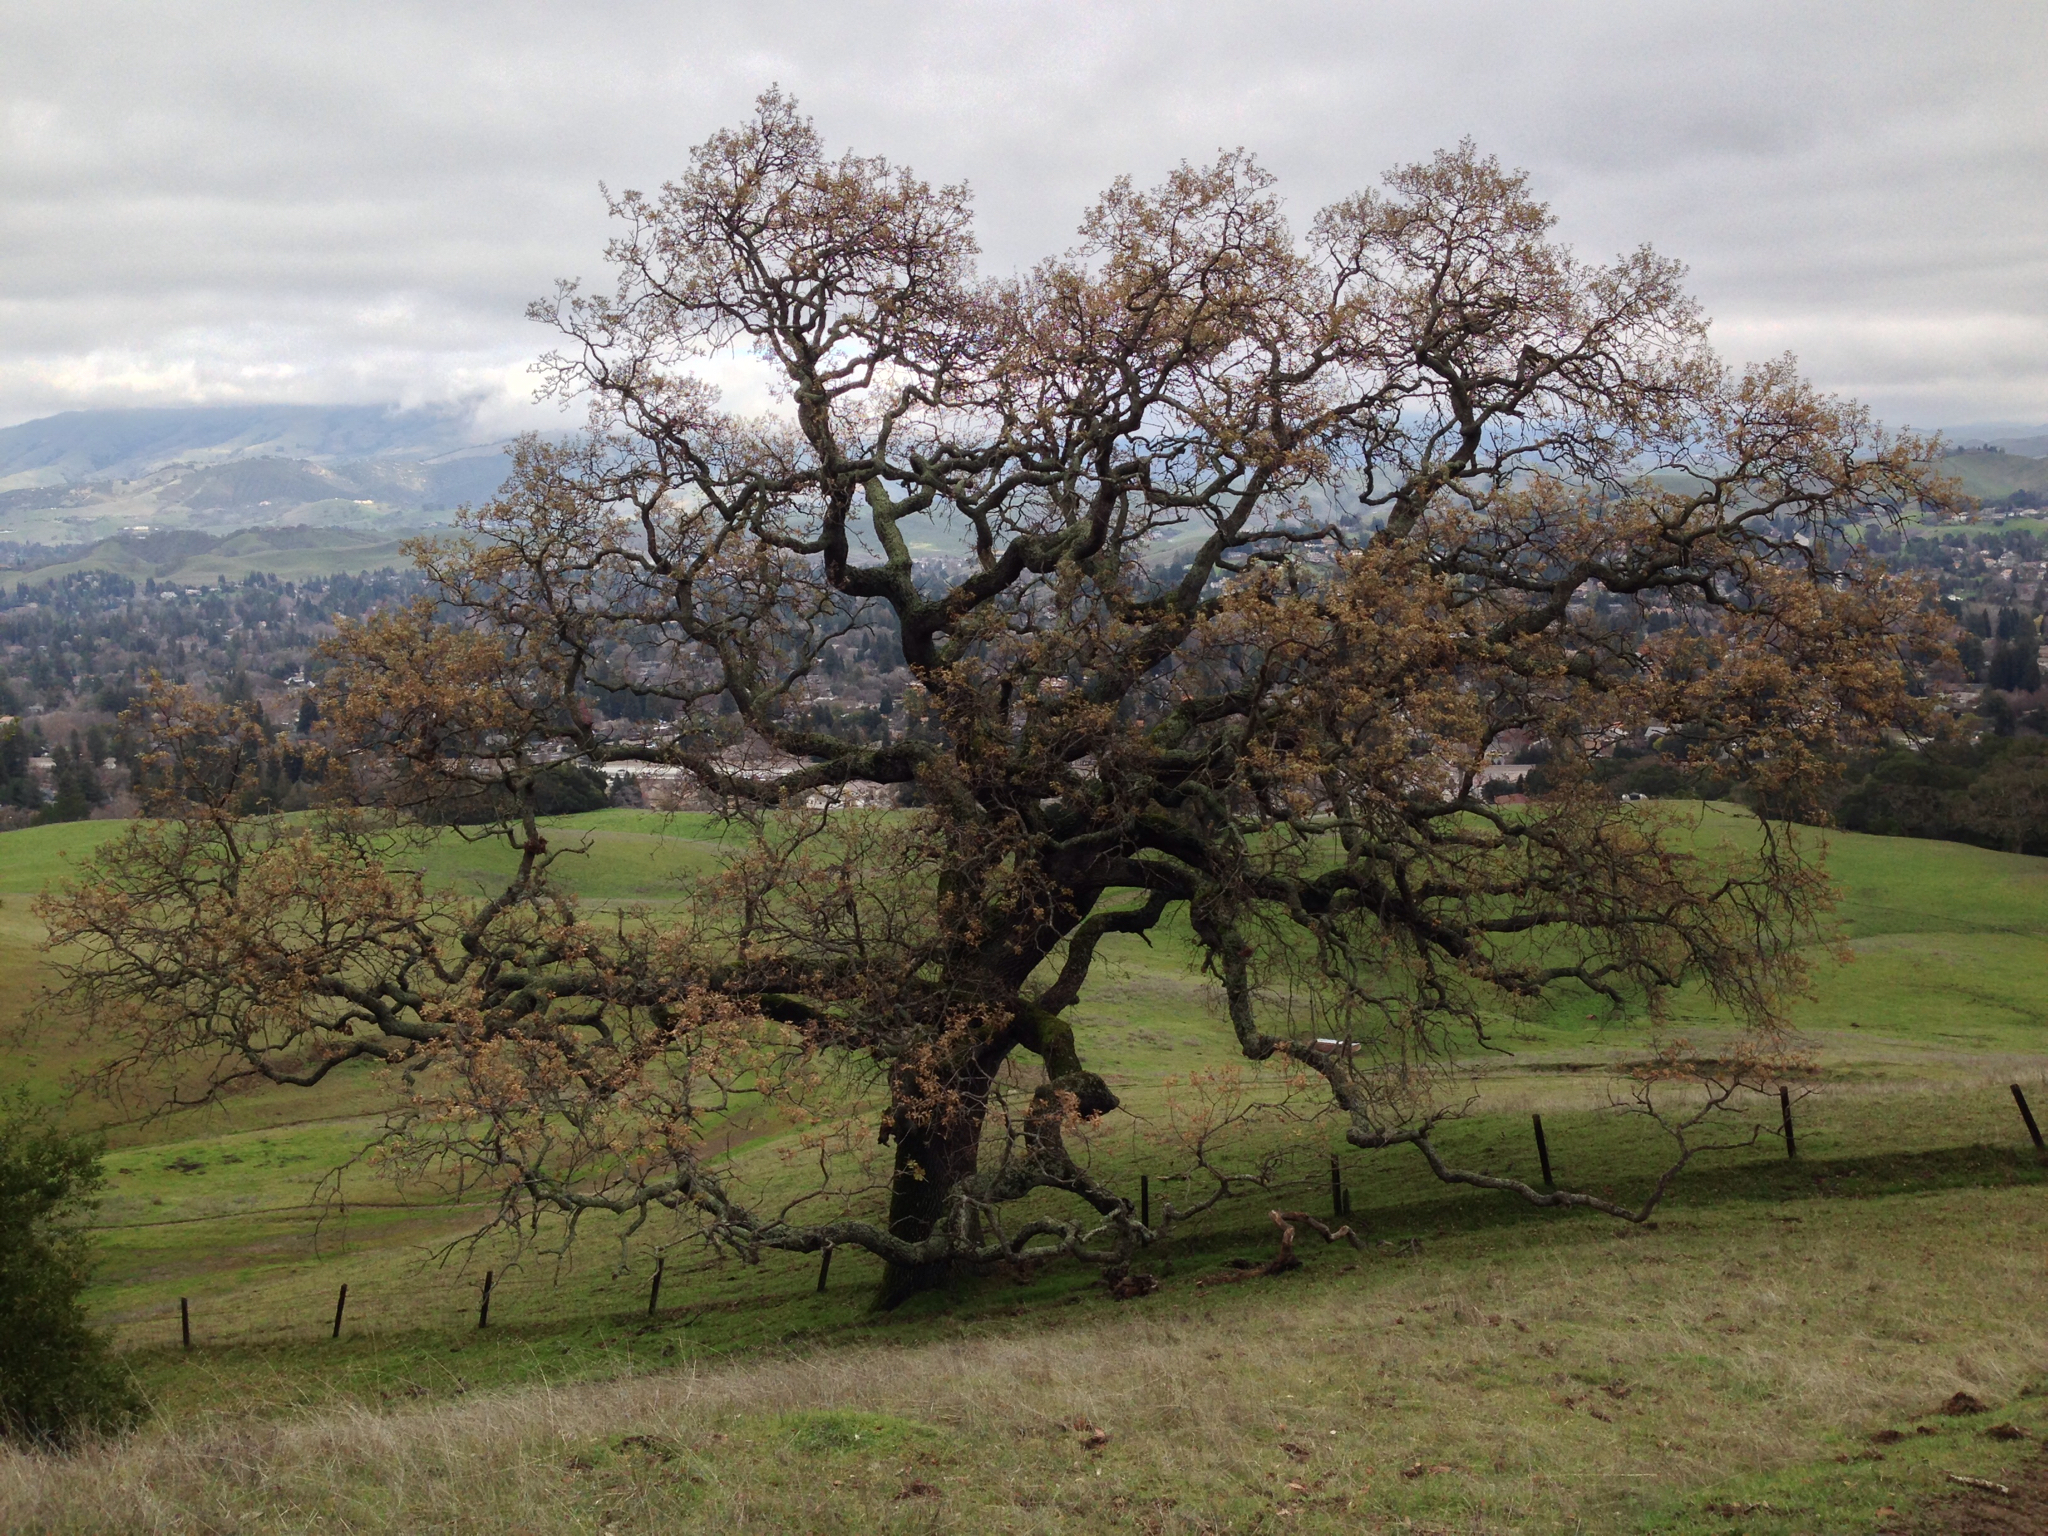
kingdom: Plantae
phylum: Tracheophyta
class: Magnoliopsida
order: Fagales
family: Fagaceae
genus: Quercus
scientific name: Quercus lobata
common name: Valley oak
